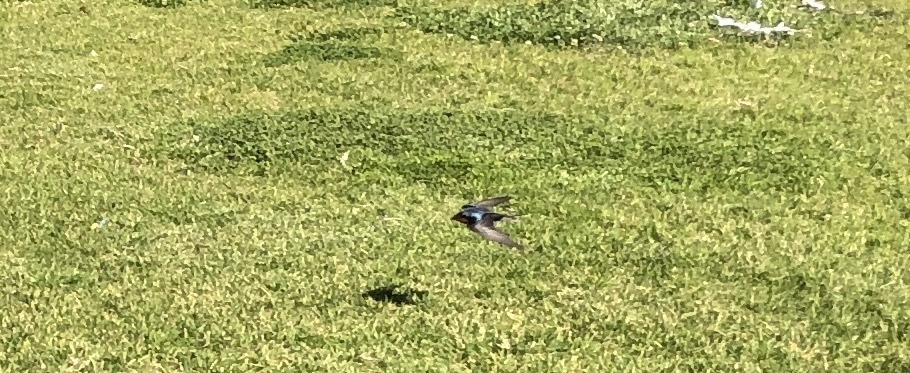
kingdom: Animalia
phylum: Chordata
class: Aves
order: Passeriformes
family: Hirundinidae
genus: Hirundo
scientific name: Hirundo neoxena
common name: Welcome swallow
